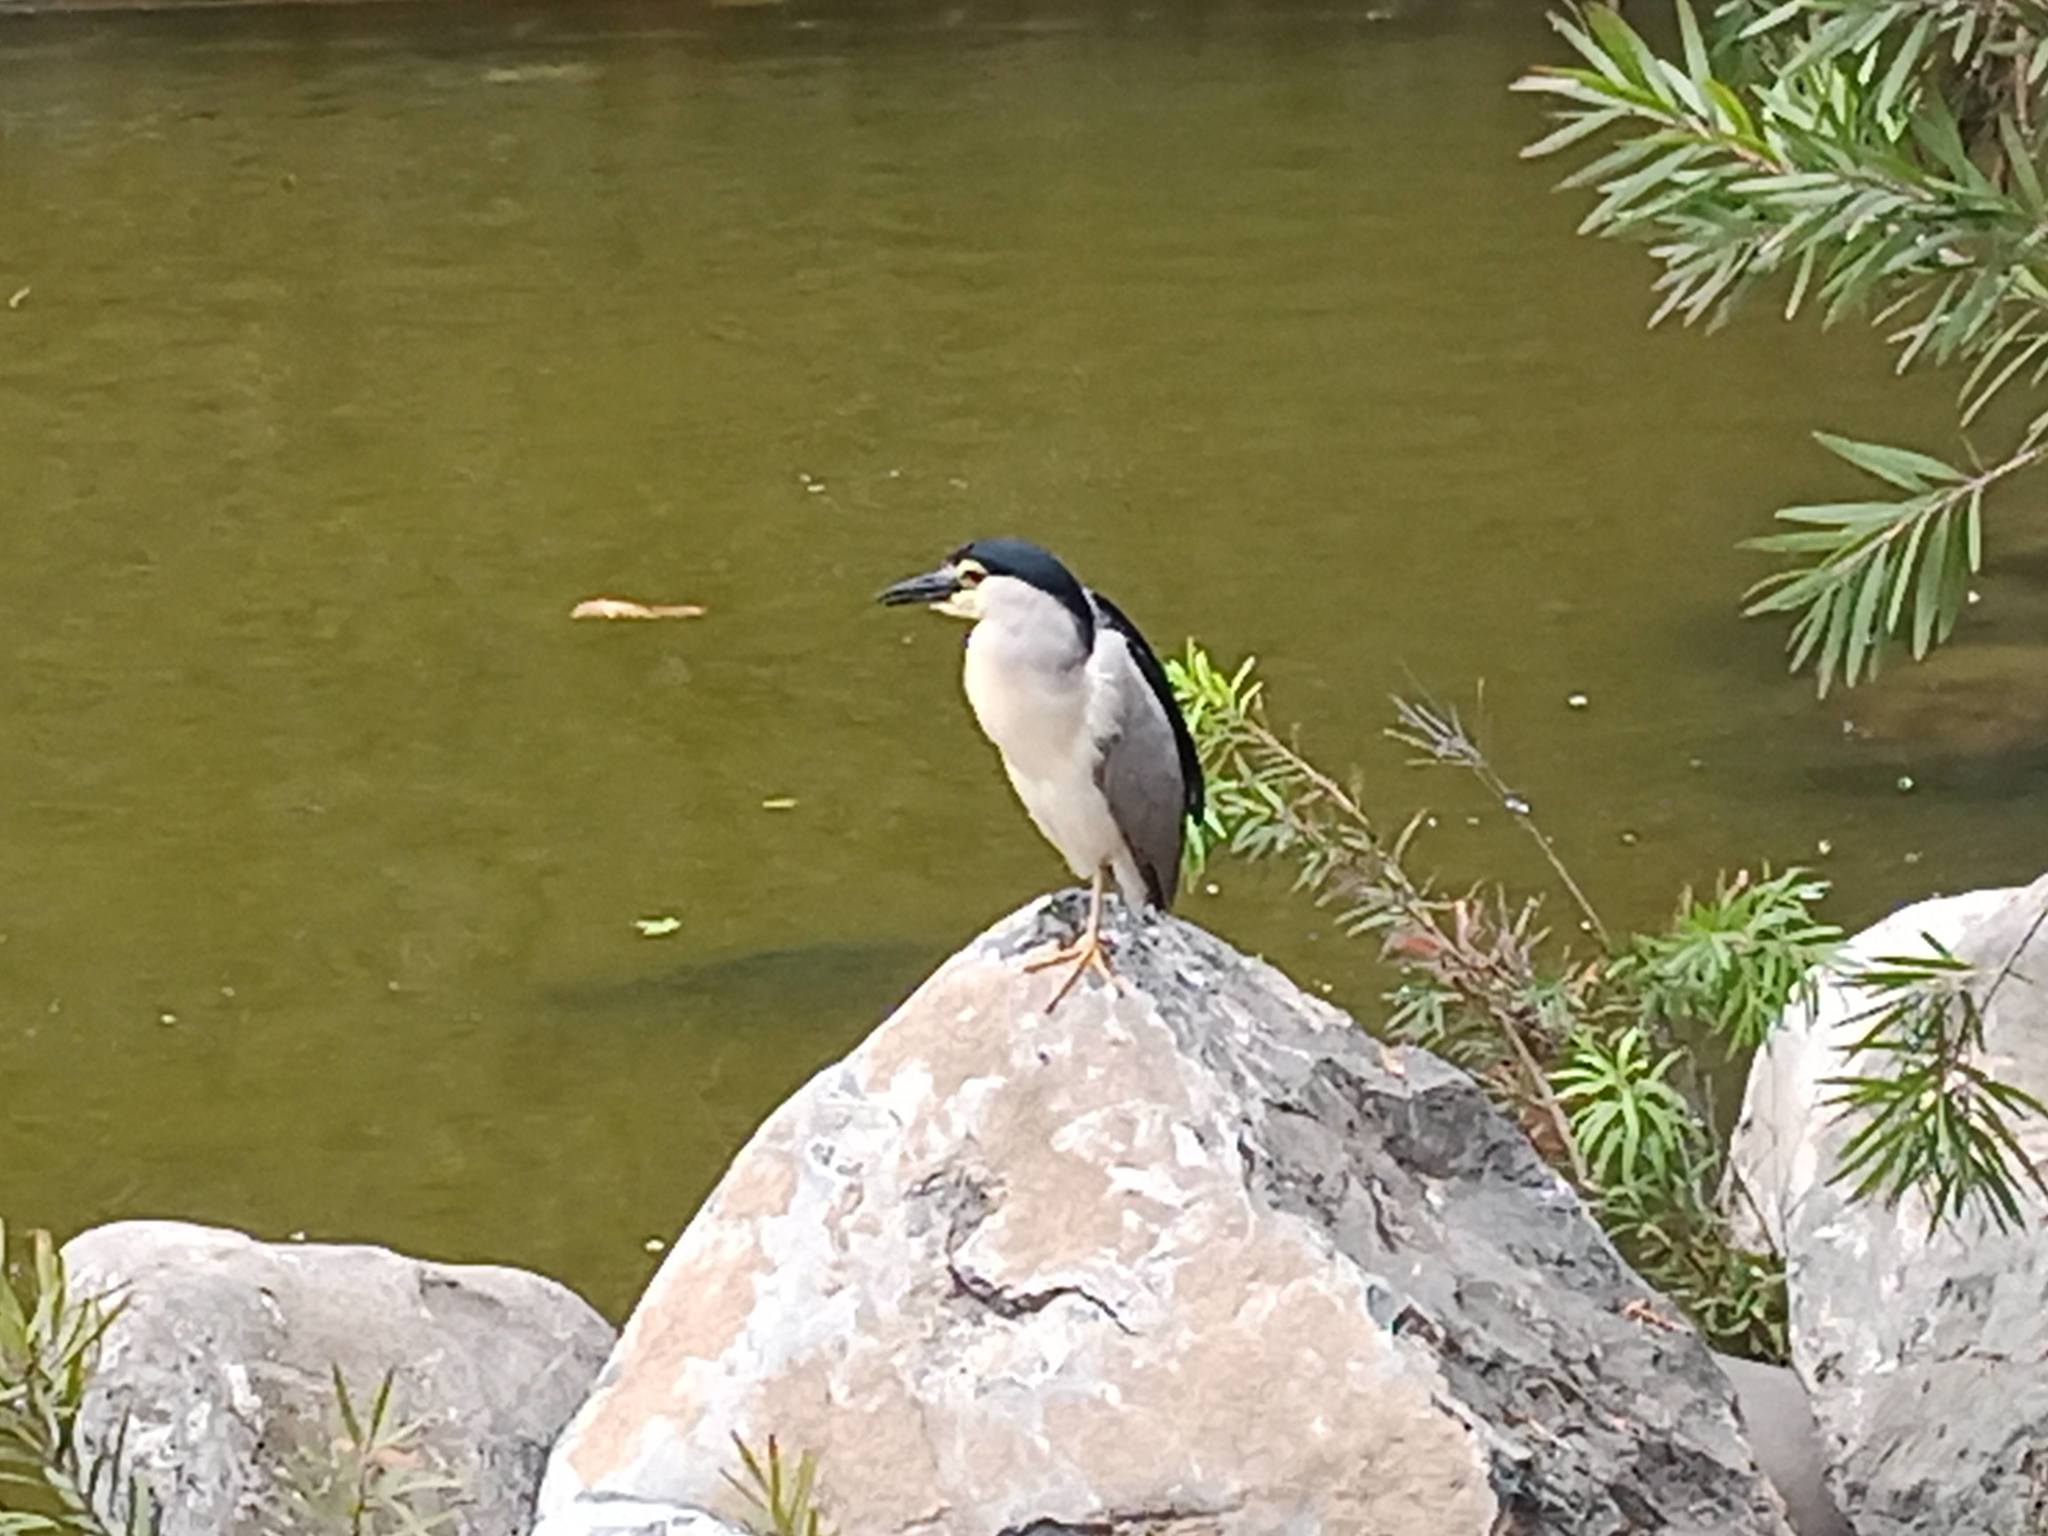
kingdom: Animalia
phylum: Chordata
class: Aves
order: Pelecaniformes
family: Ardeidae
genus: Nycticorax
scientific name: Nycticorax nycticorax
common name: Black-crowned night heron
